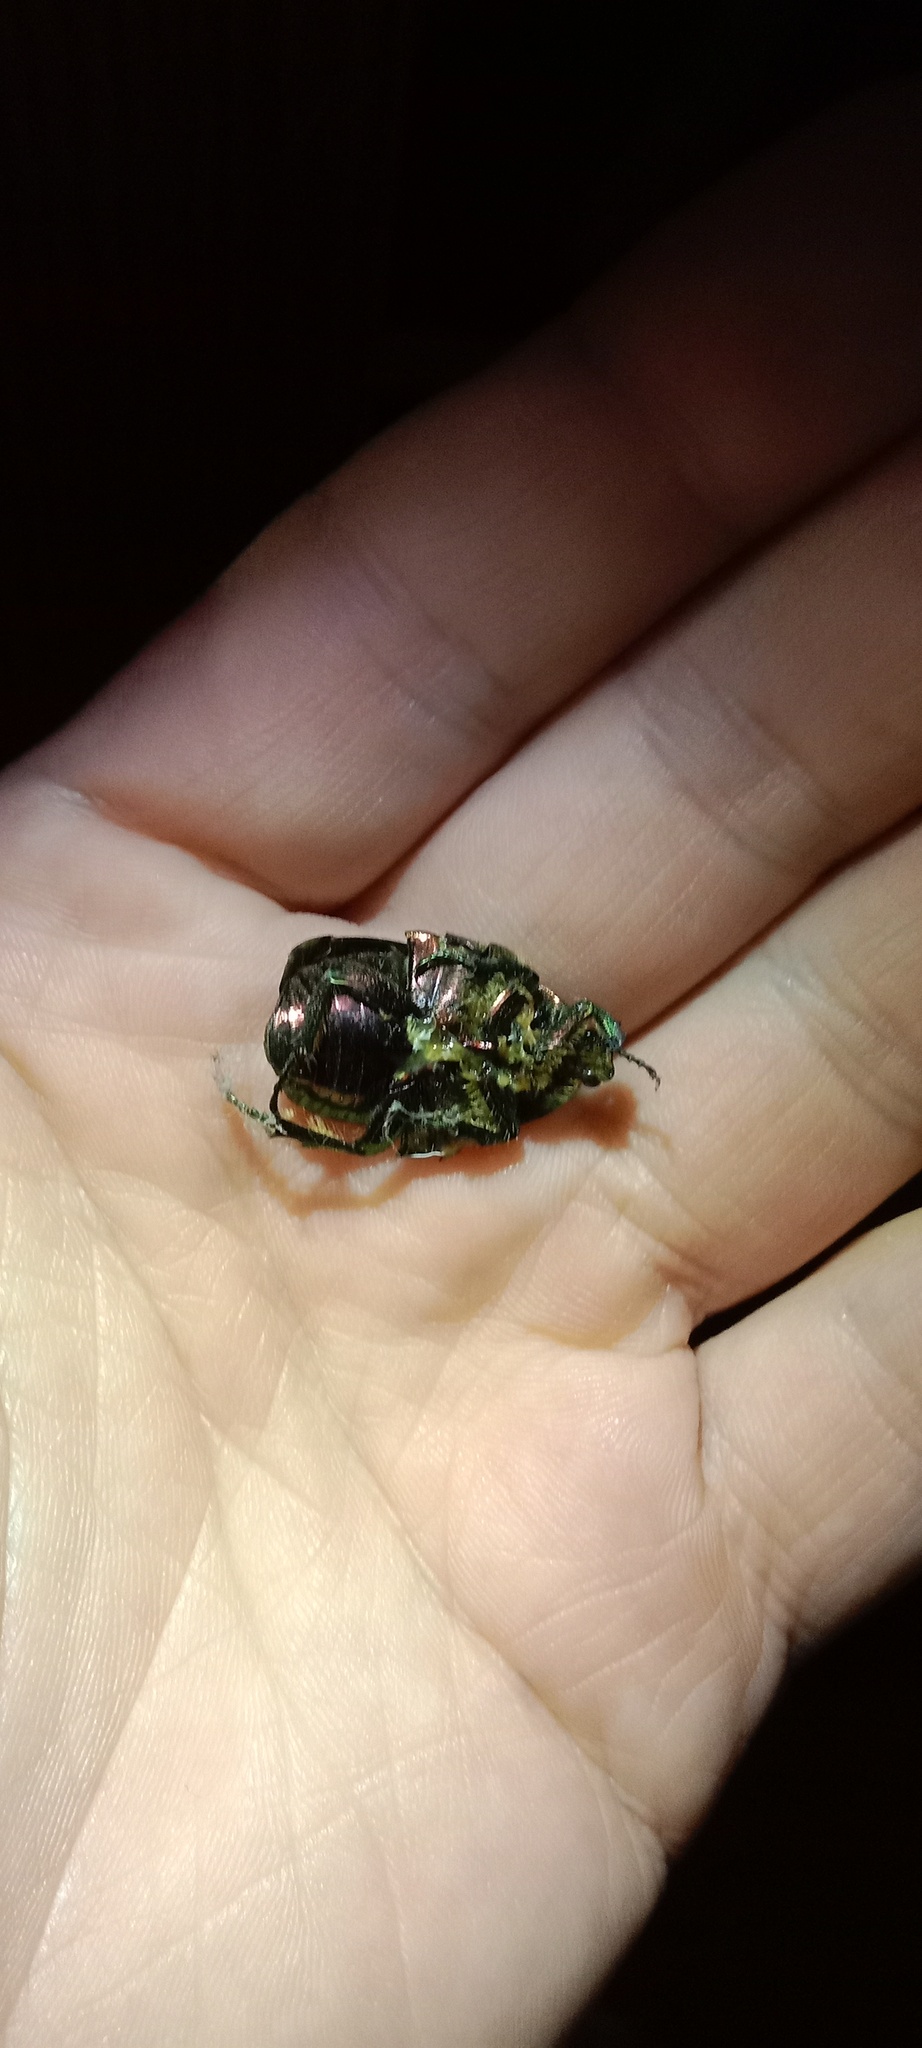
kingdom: Animalia
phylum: Arthropoda
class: Insecta
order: Coleoptera
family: Scarabaeidae
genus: Cetonia
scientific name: Cetonia aurata
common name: Rose chafer
